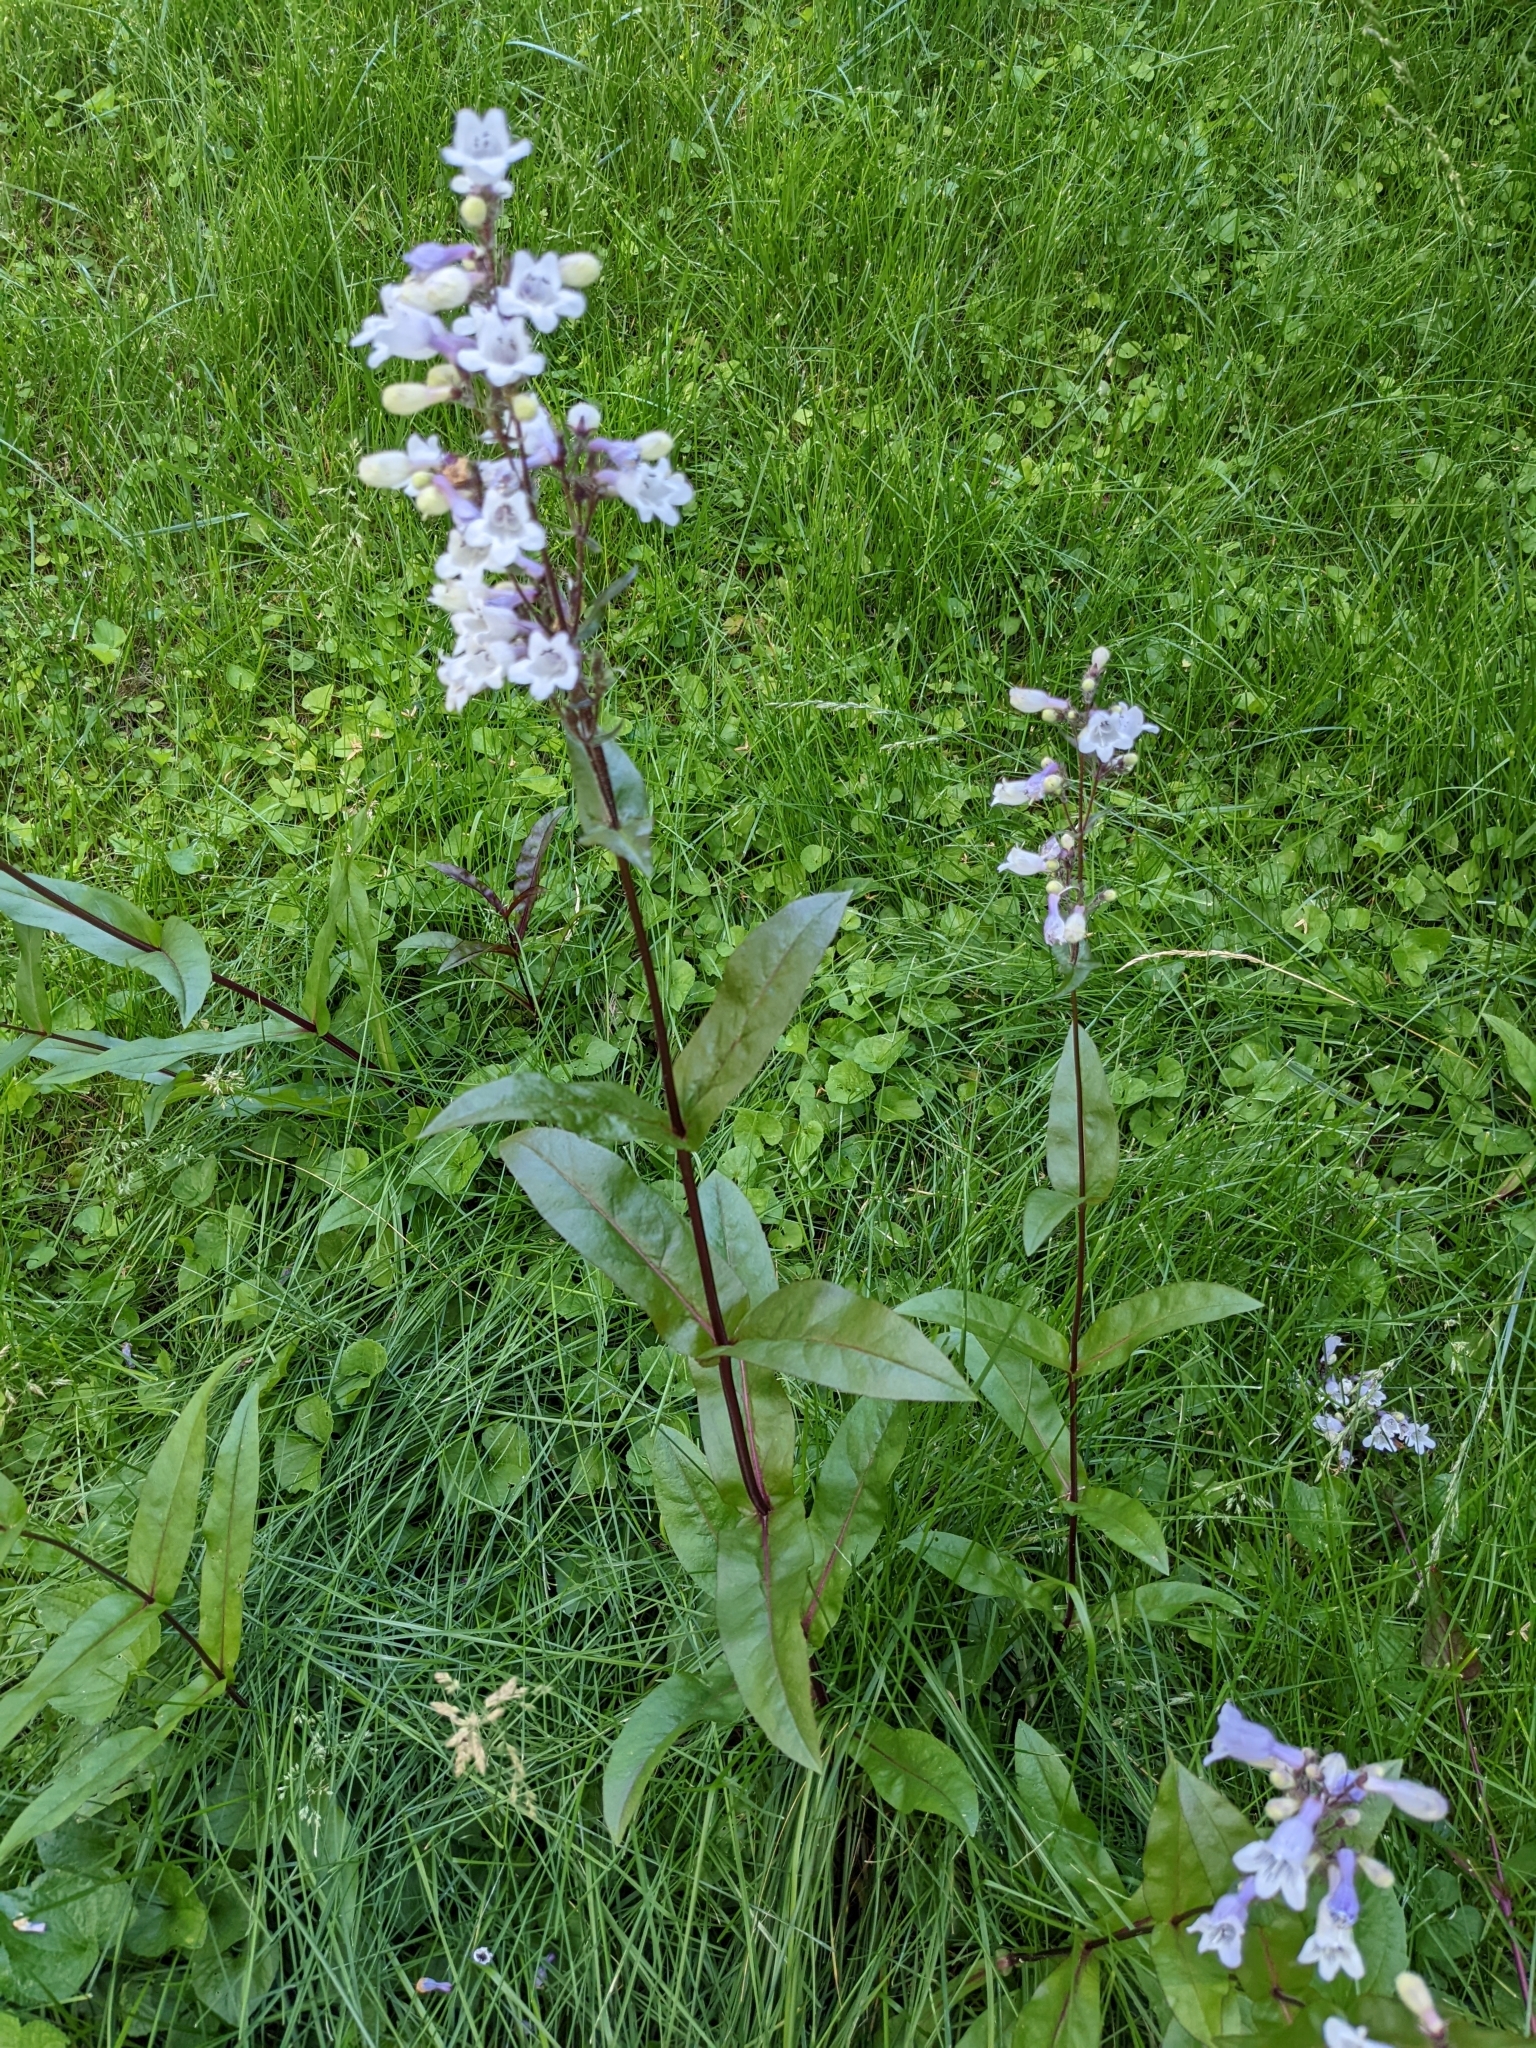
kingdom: Plantae
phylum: Tracheophyta
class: Magnoliopsida
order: Lamiales
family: Plantaginaceae
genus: Penstemon
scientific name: Penstemon digitalis
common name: Foxglove beardtongue
